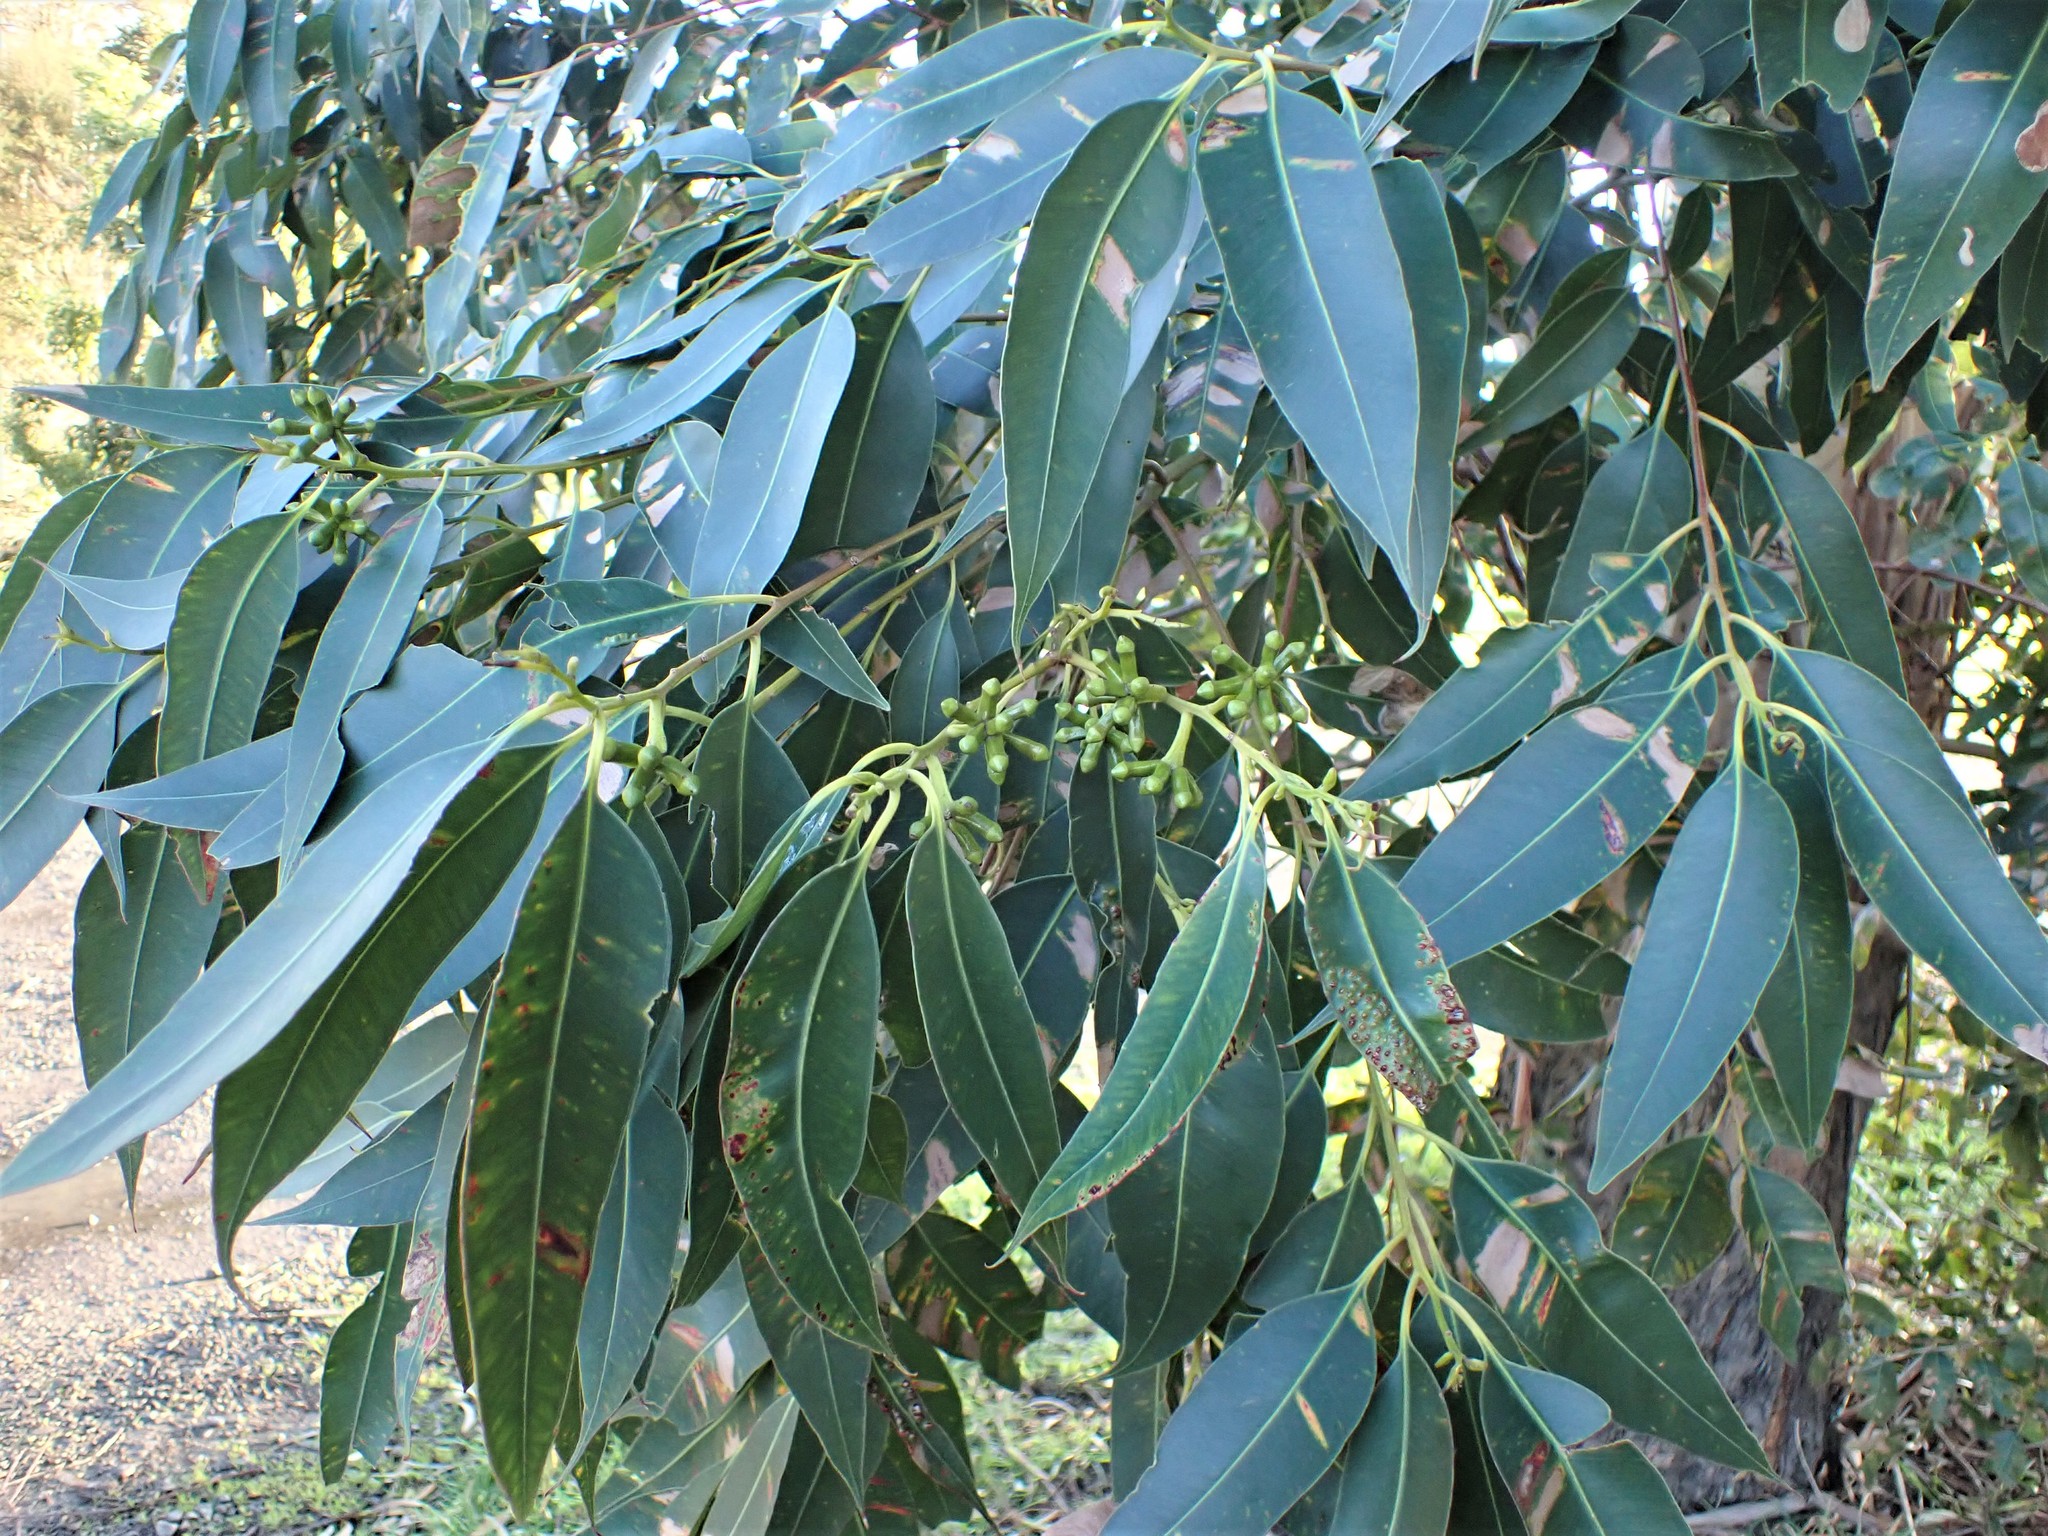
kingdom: Plantae
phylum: Tracheophyta
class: Magnoliopsida
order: Myrtales
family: Myrtaceae
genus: Eucalyptus
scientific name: Eucalyptus botryoides
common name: Bangalay
